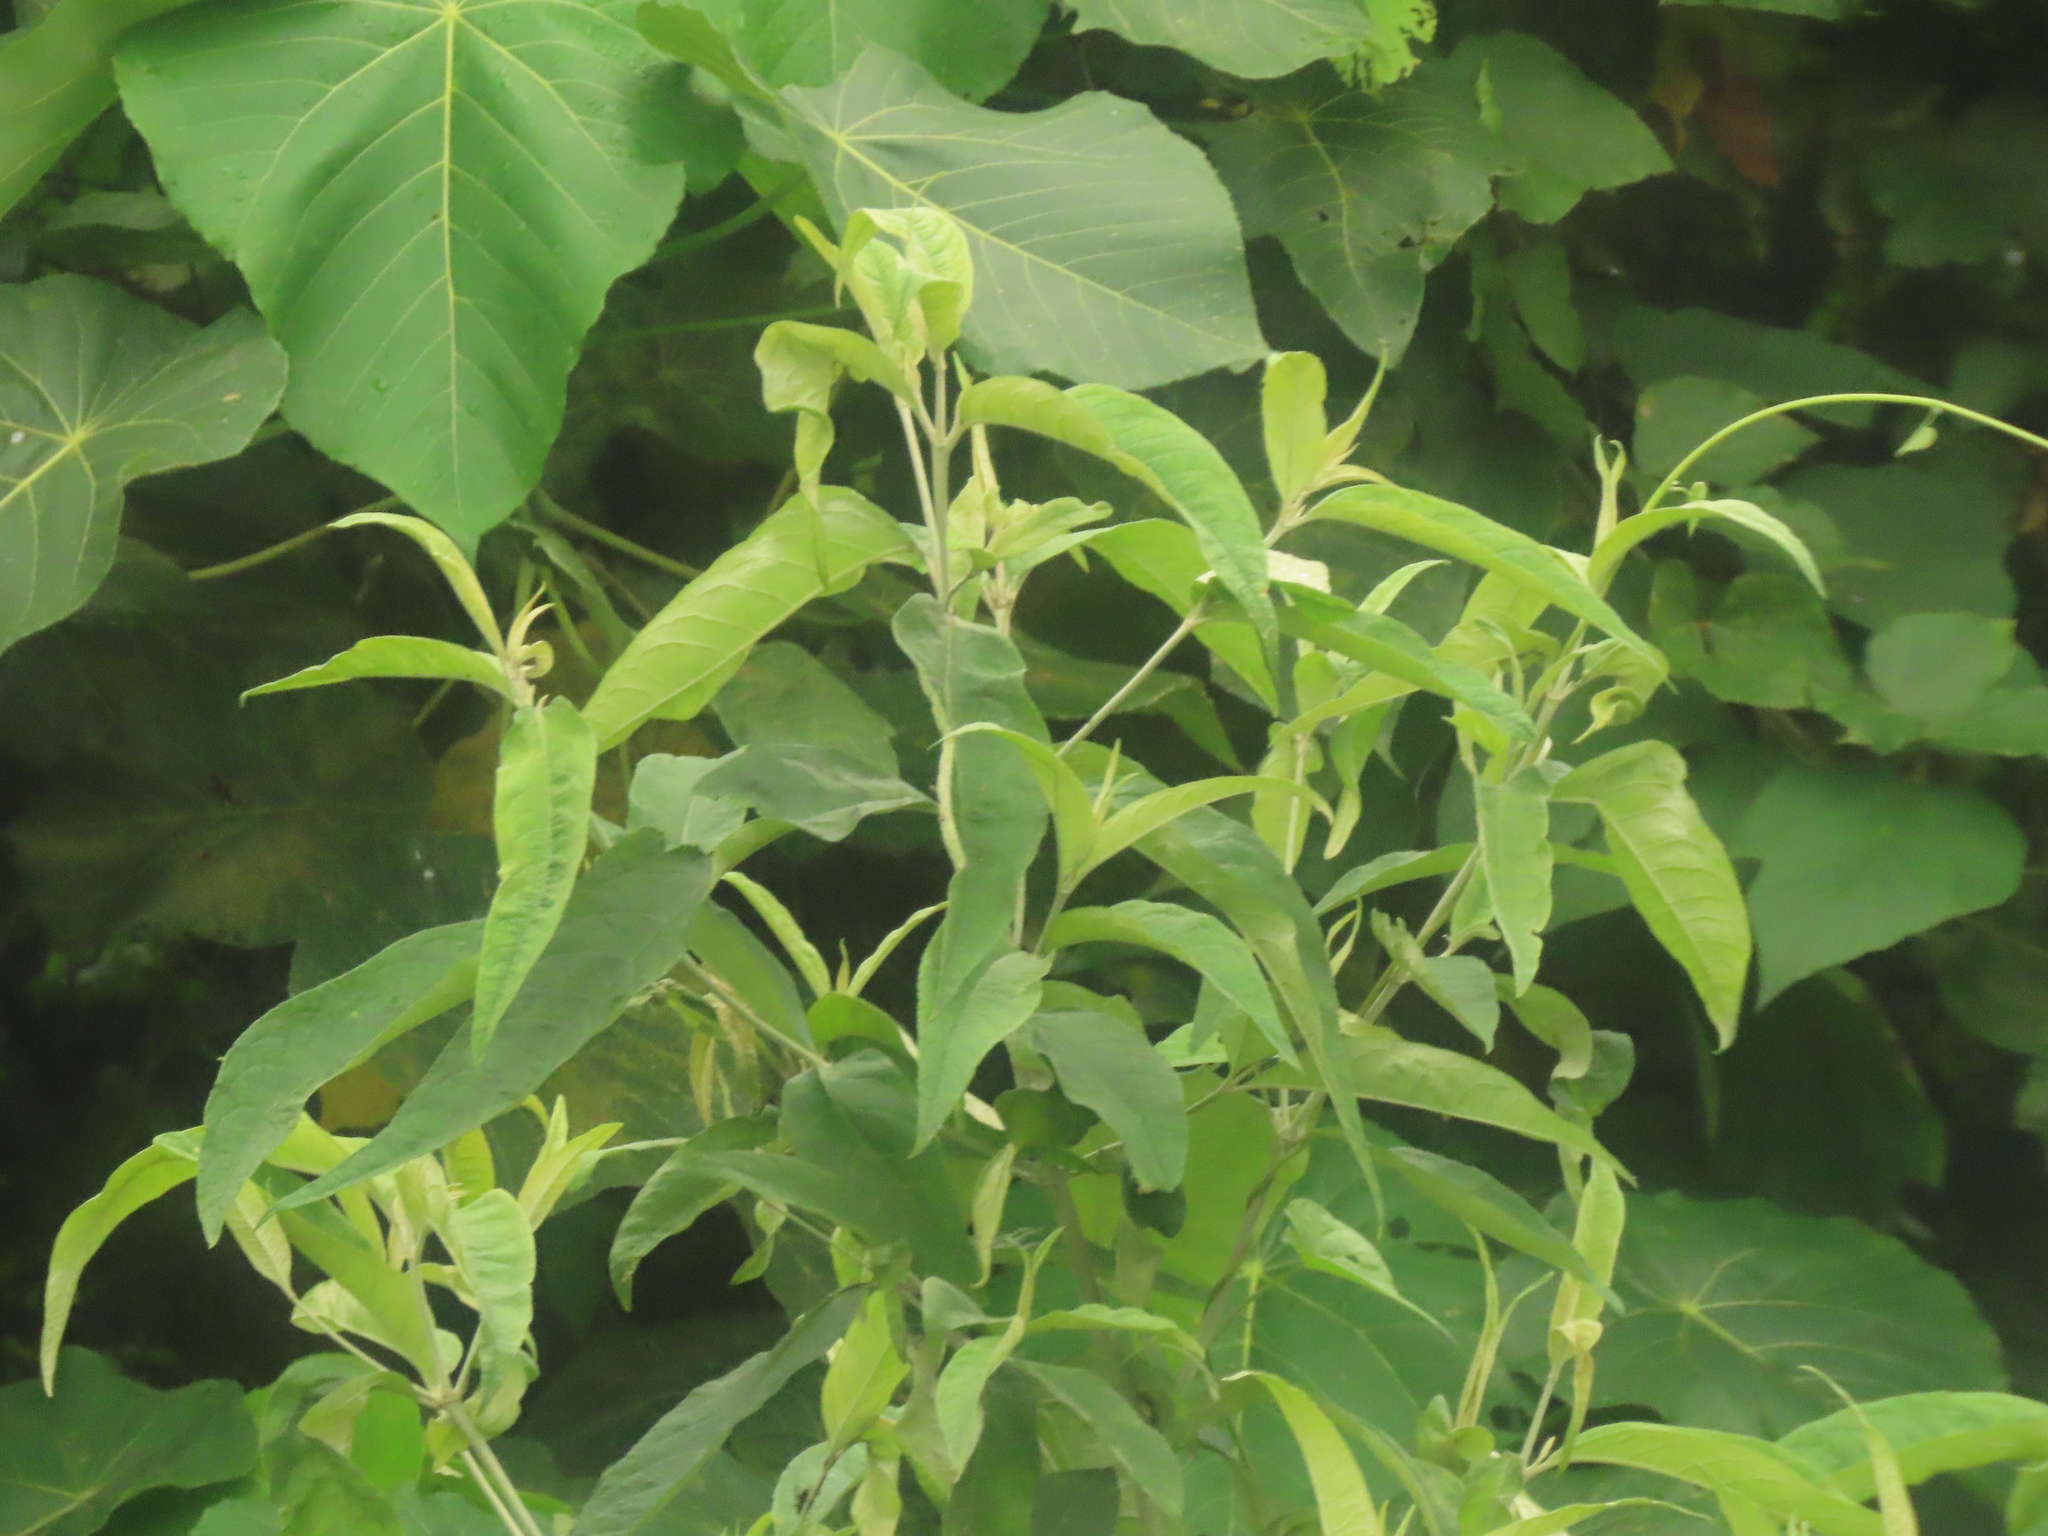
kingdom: Plantae
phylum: Tracheophyta
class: Magnoliopsida
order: Lamiales
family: Scrophulariaceae
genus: Buddleja
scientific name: Buddleja asiatica
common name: Dog tail
